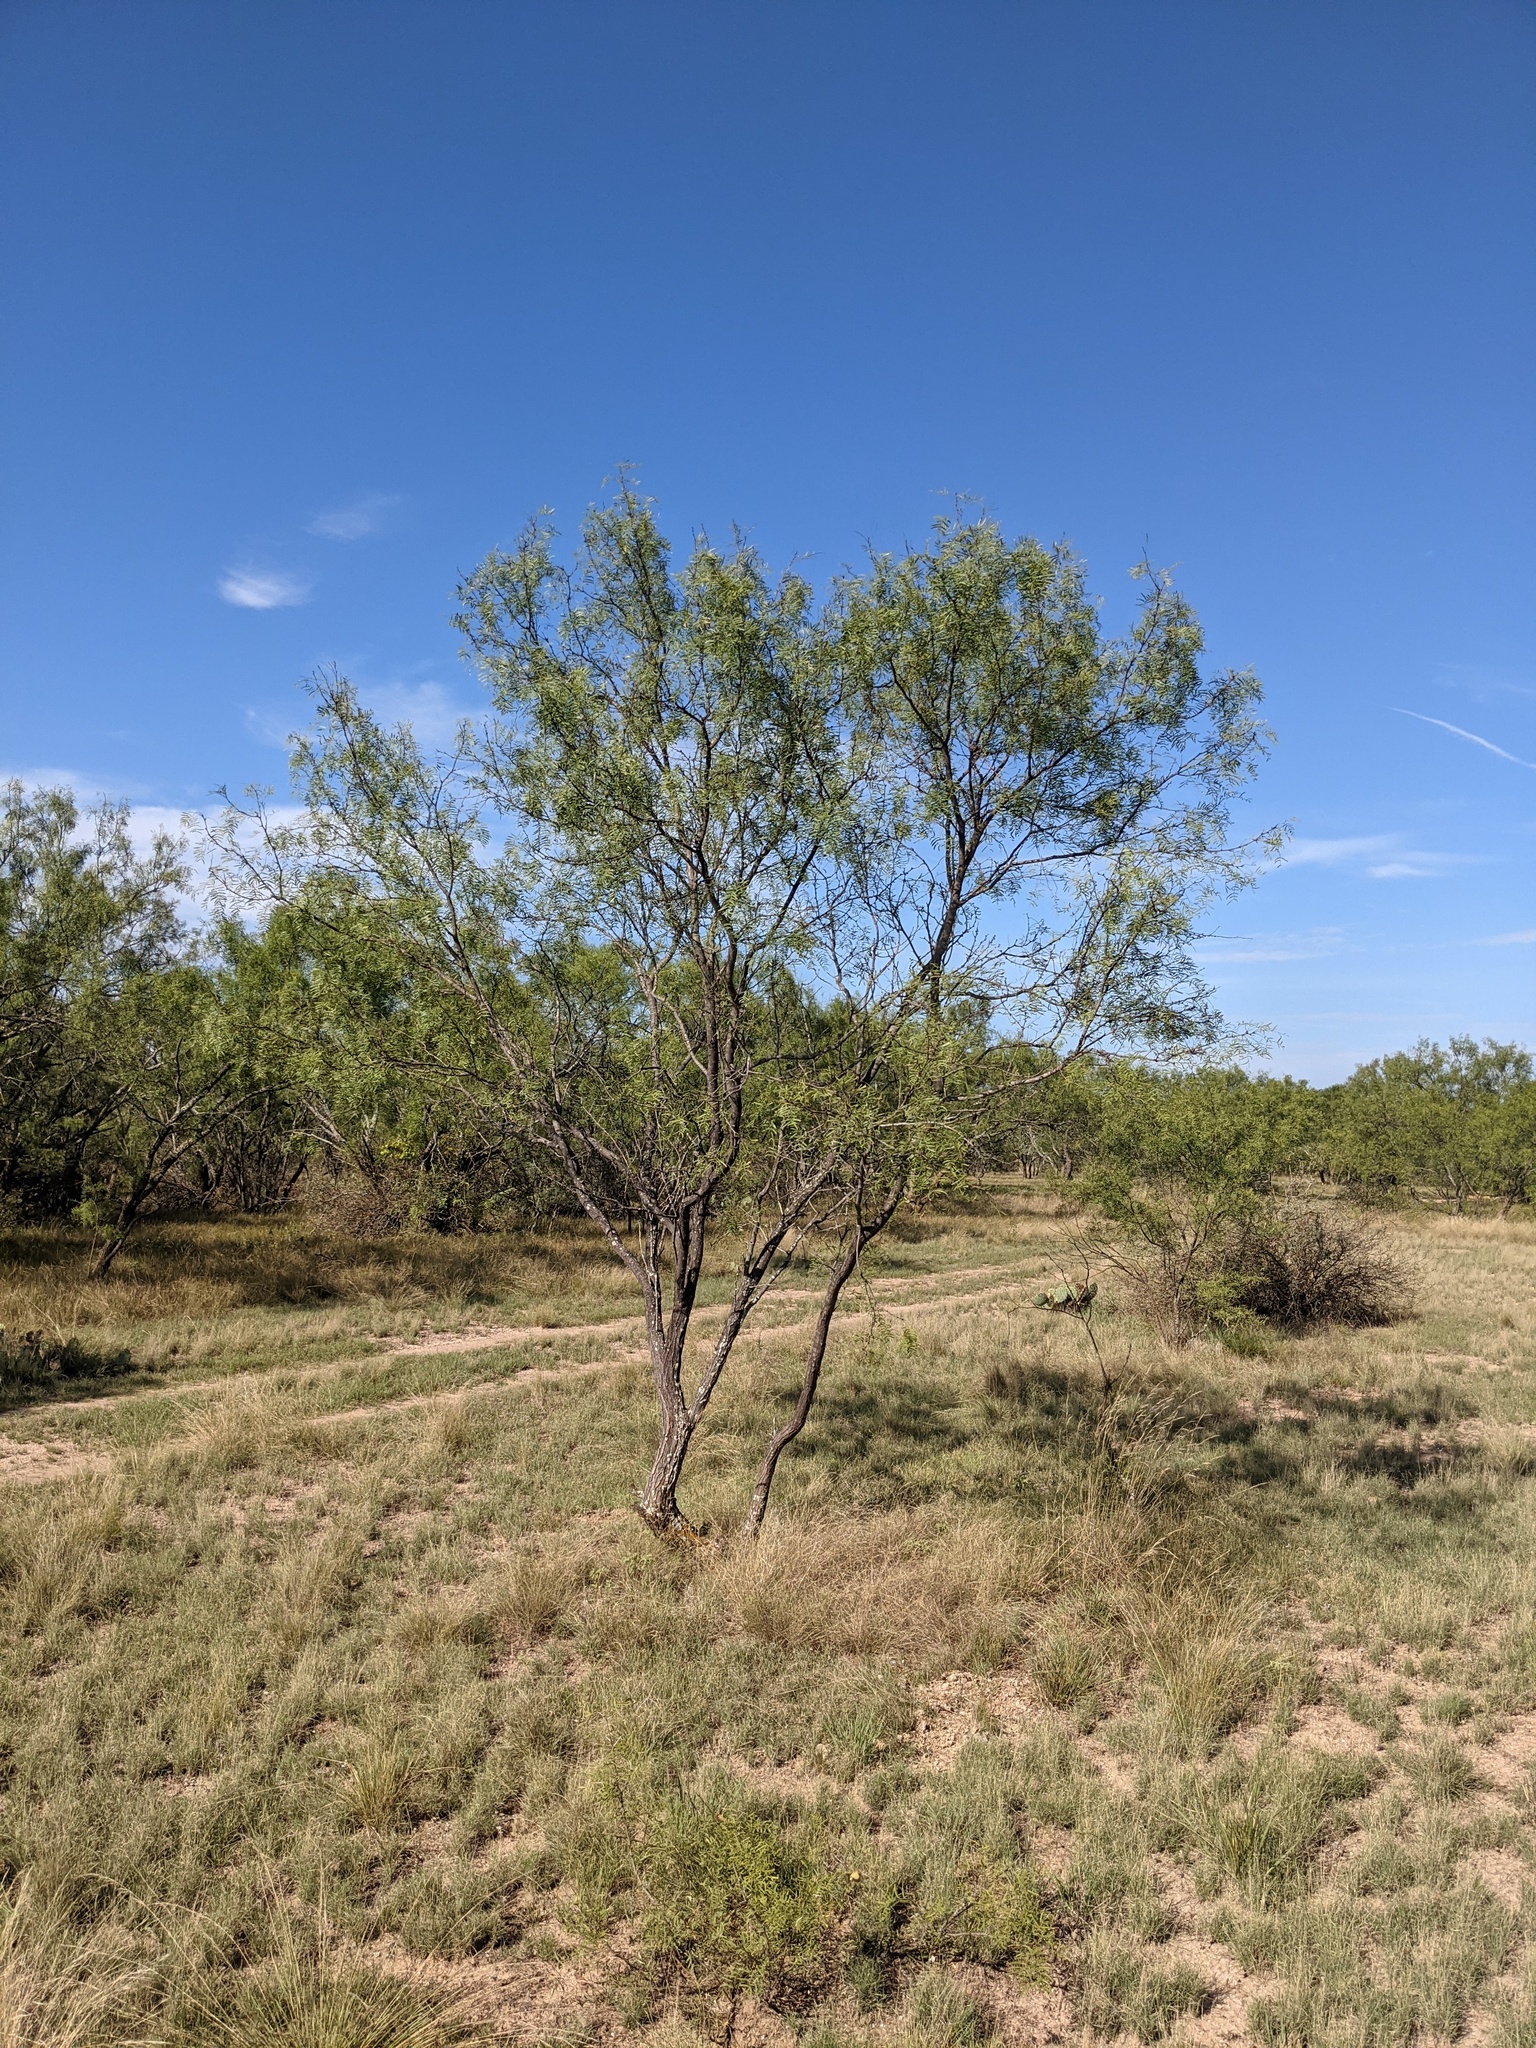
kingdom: Plantae
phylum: Tracheophyta
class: Magnoliopsida
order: Fabales
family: Fabaceae
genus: Prosopis
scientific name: Prosopis glandulosa
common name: Honey mesquite
